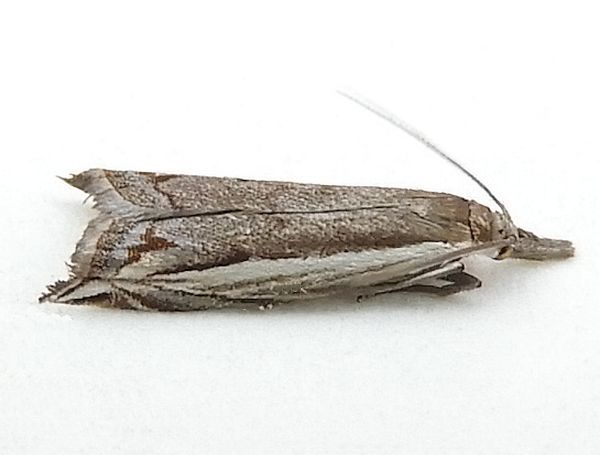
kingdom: Animalia
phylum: Arthropoda
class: Insecta
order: Lepidoptera
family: Crambidae
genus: Raphiptera
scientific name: Raphiptera argillaceellus
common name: Diminutive grass-veneer
